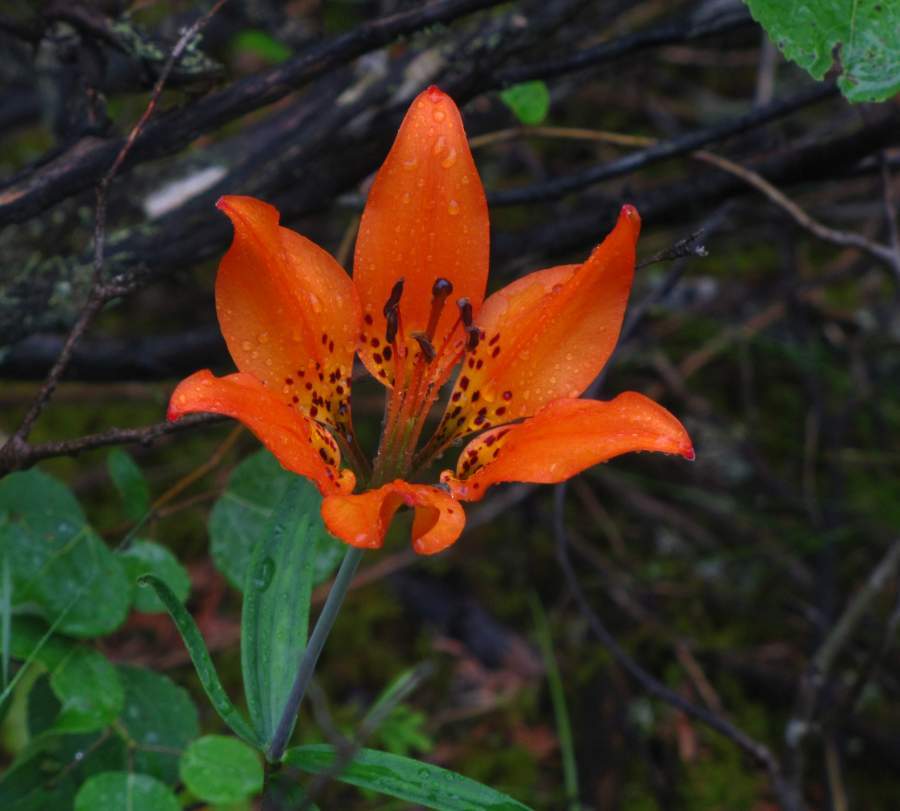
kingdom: Plantae
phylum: Tracheophyta
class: Liliopsida
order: Liliales
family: Liliaceae
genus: Lilium
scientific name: Lilium philadelphicum
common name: Red lily
